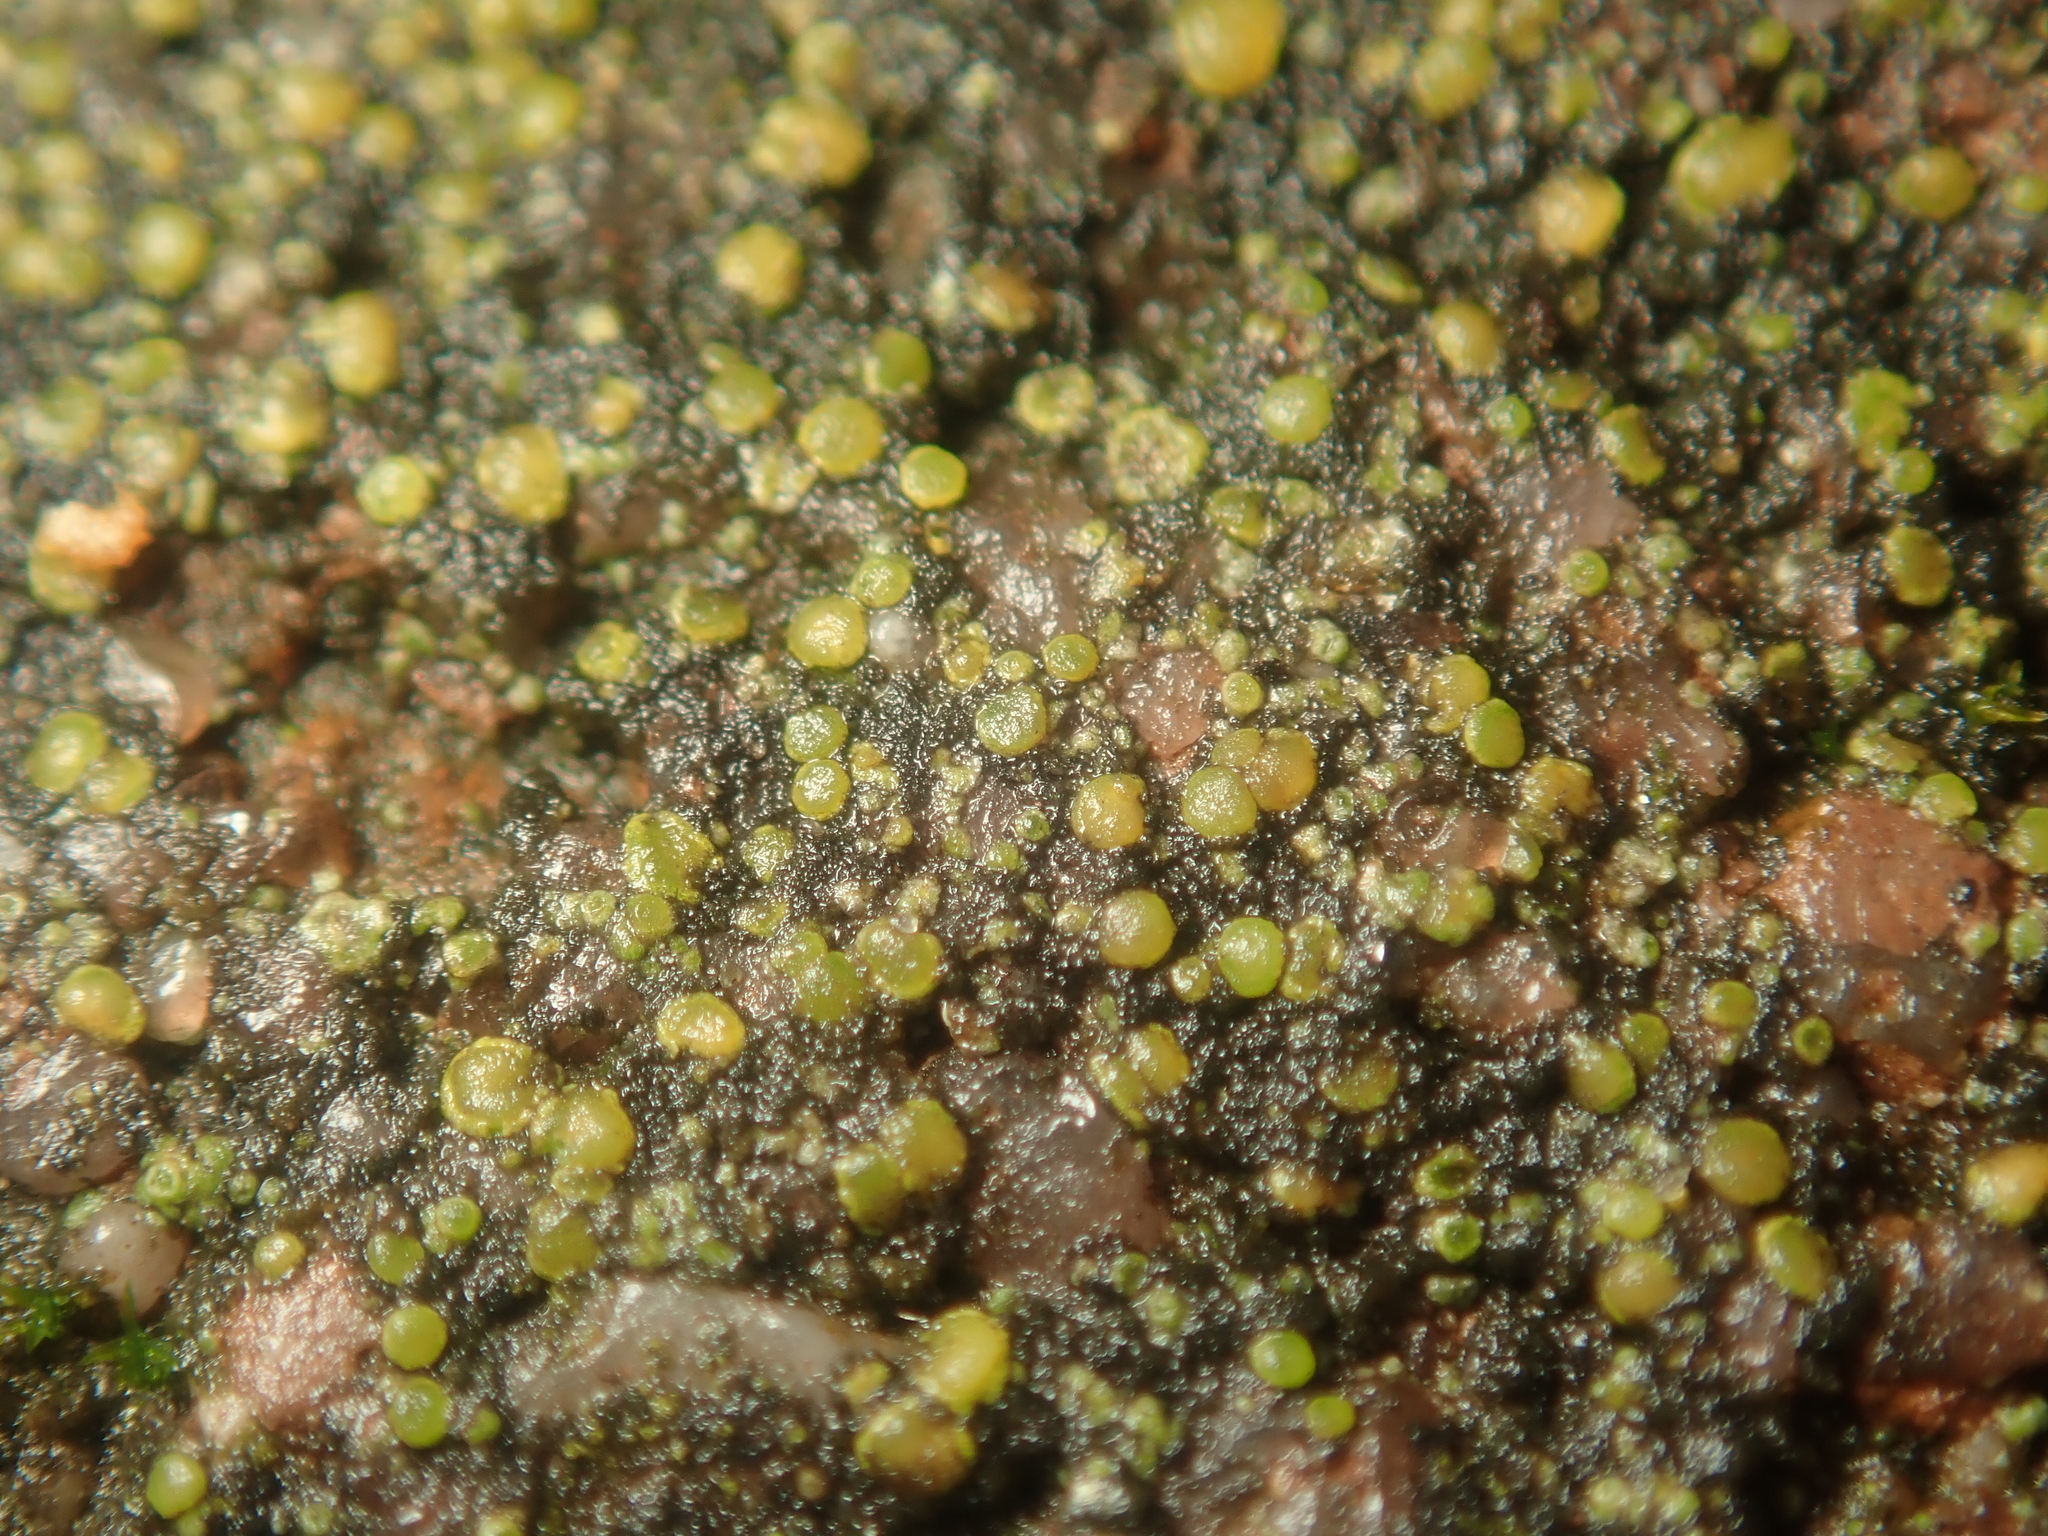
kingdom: Fungi
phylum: Ascomycota
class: Candelariomycetes
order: Candelariales
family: Candelariaceae
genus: Candelariella
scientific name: Candelariella aurella
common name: Hidden goldspeck lichen
